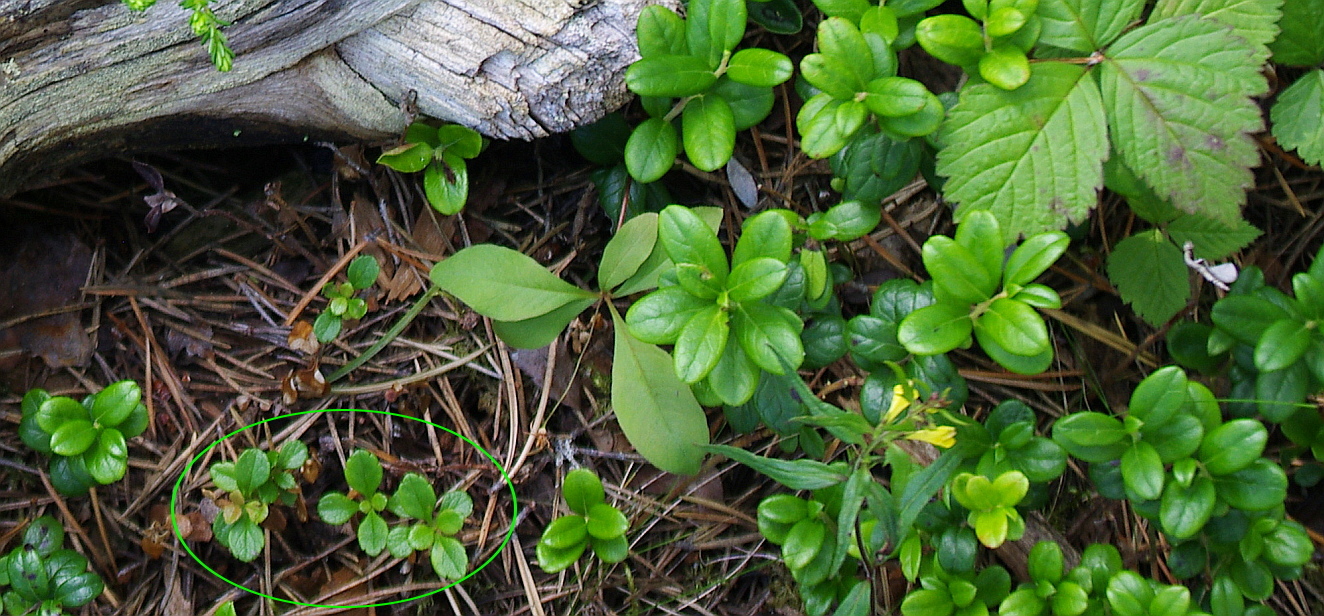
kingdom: Plantae
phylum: Tracheophyta
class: Magnoliopsida
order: Dipsacales
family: Caprifoliaceae
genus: Linnaea
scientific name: Linnaea borealis
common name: Twinflower
